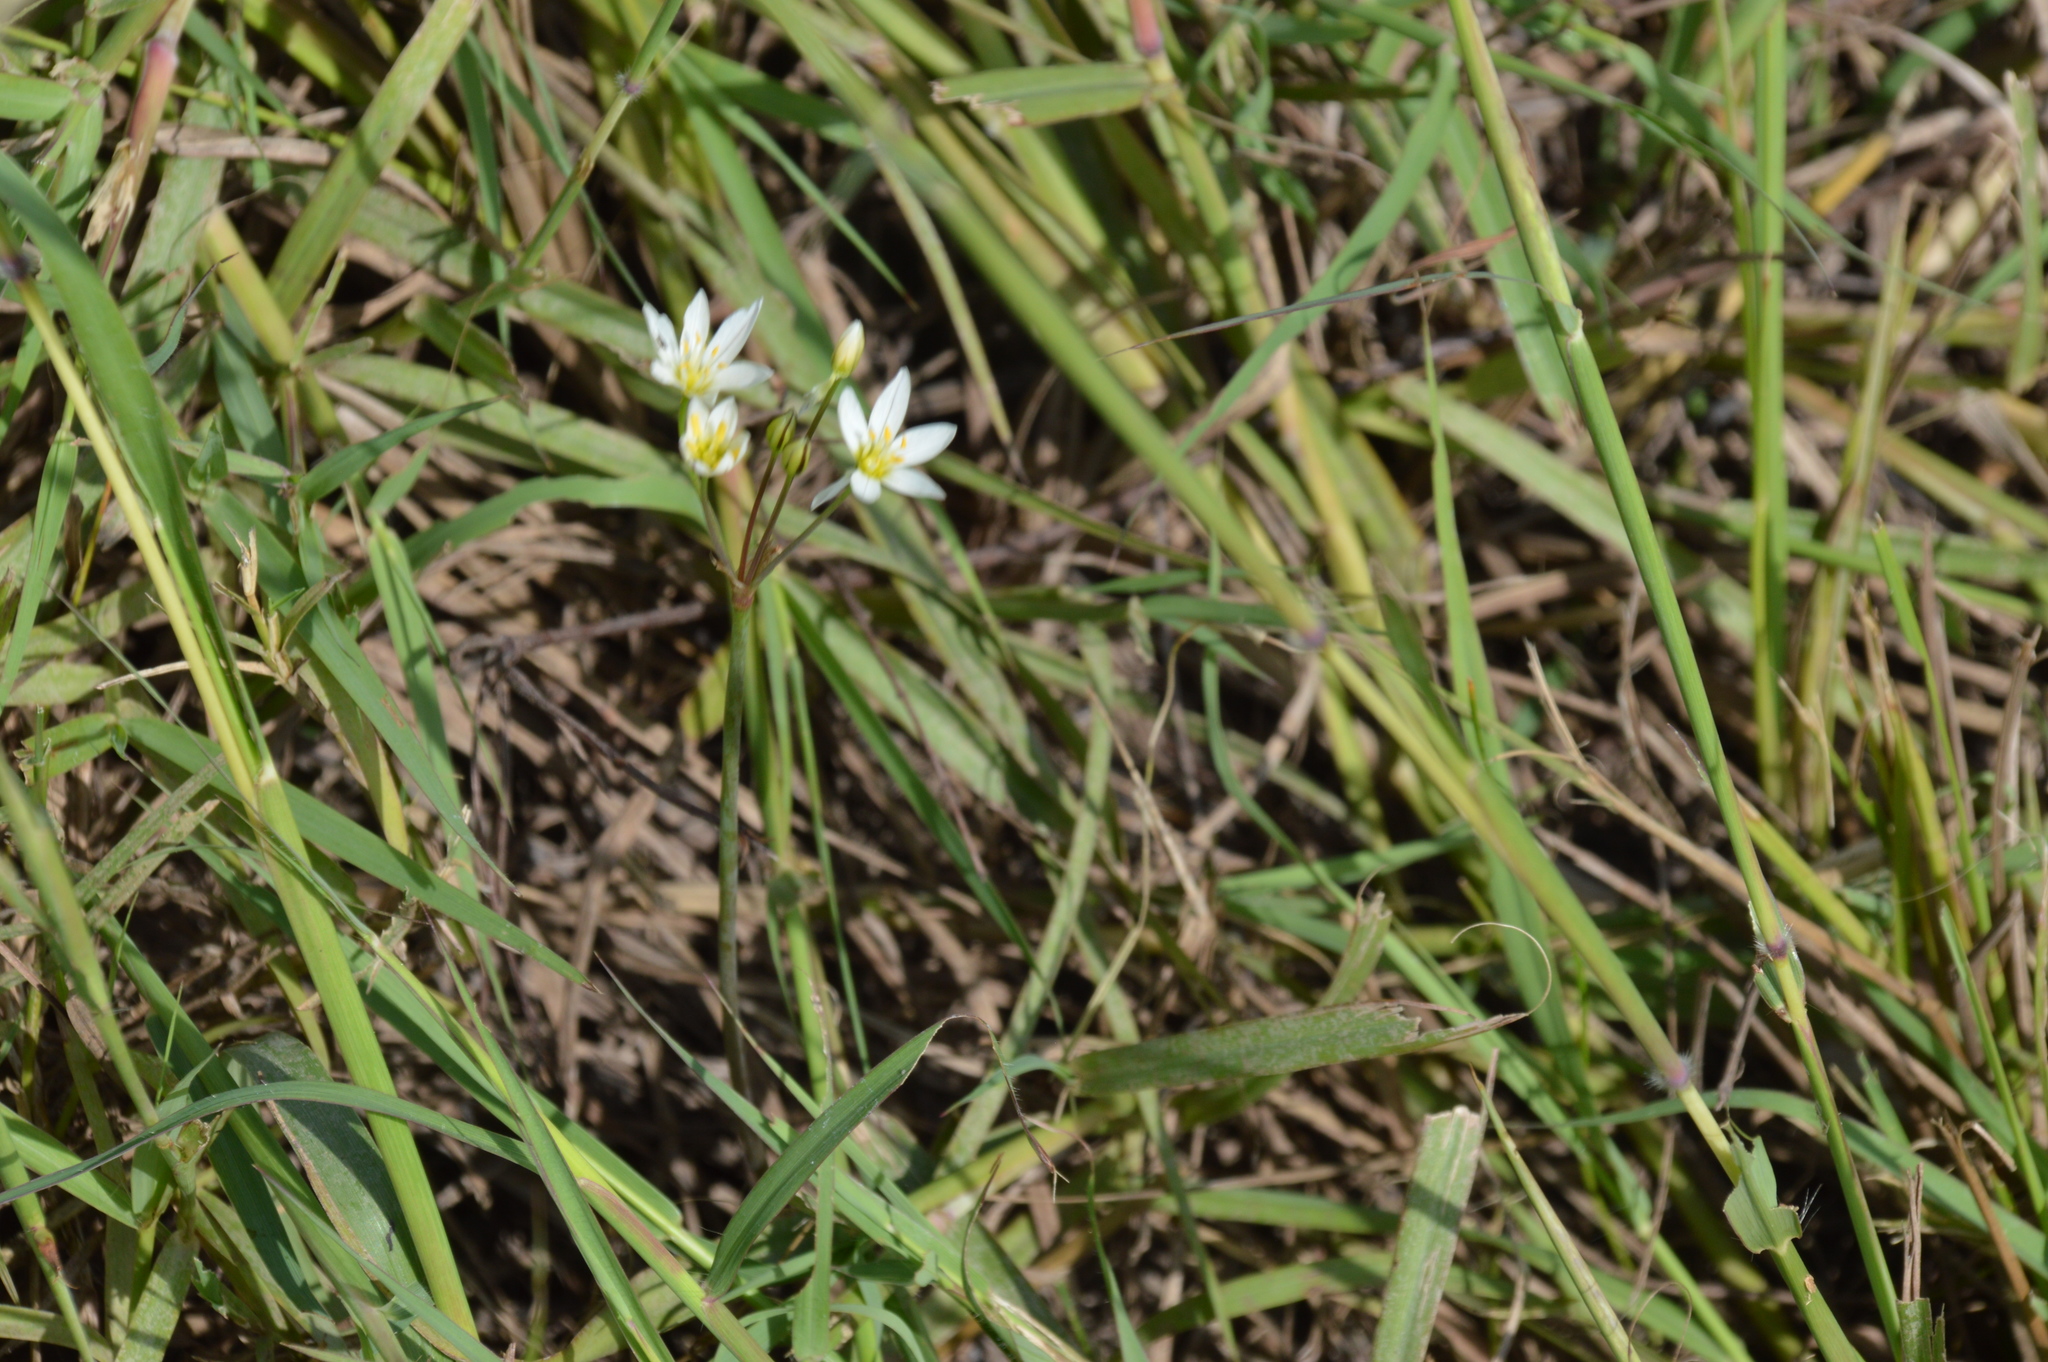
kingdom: Plantae
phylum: Tracheophyta
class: Liliopsida
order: Asparagales
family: Amaryllidaceae
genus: Nothoscordum
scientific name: Nothoscordum bivalve
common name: Crow-poison
